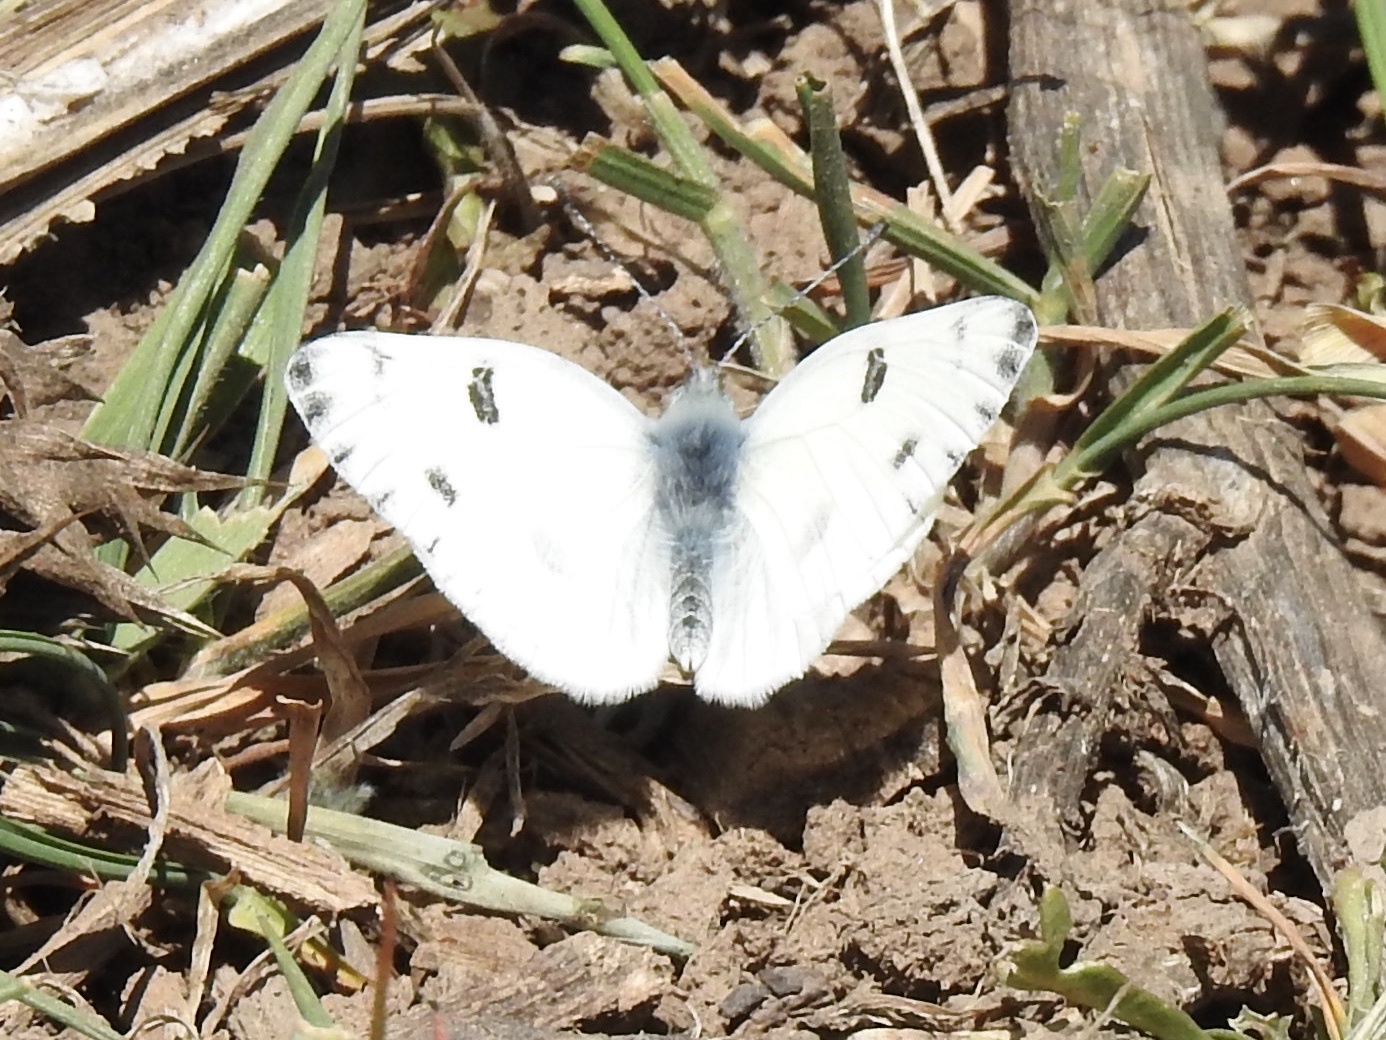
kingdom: Animalia
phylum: Arthropoda
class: Insecta
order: Lepidoptera
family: Pieridae
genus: Pontia
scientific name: Pontia protodice
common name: Checkered white
